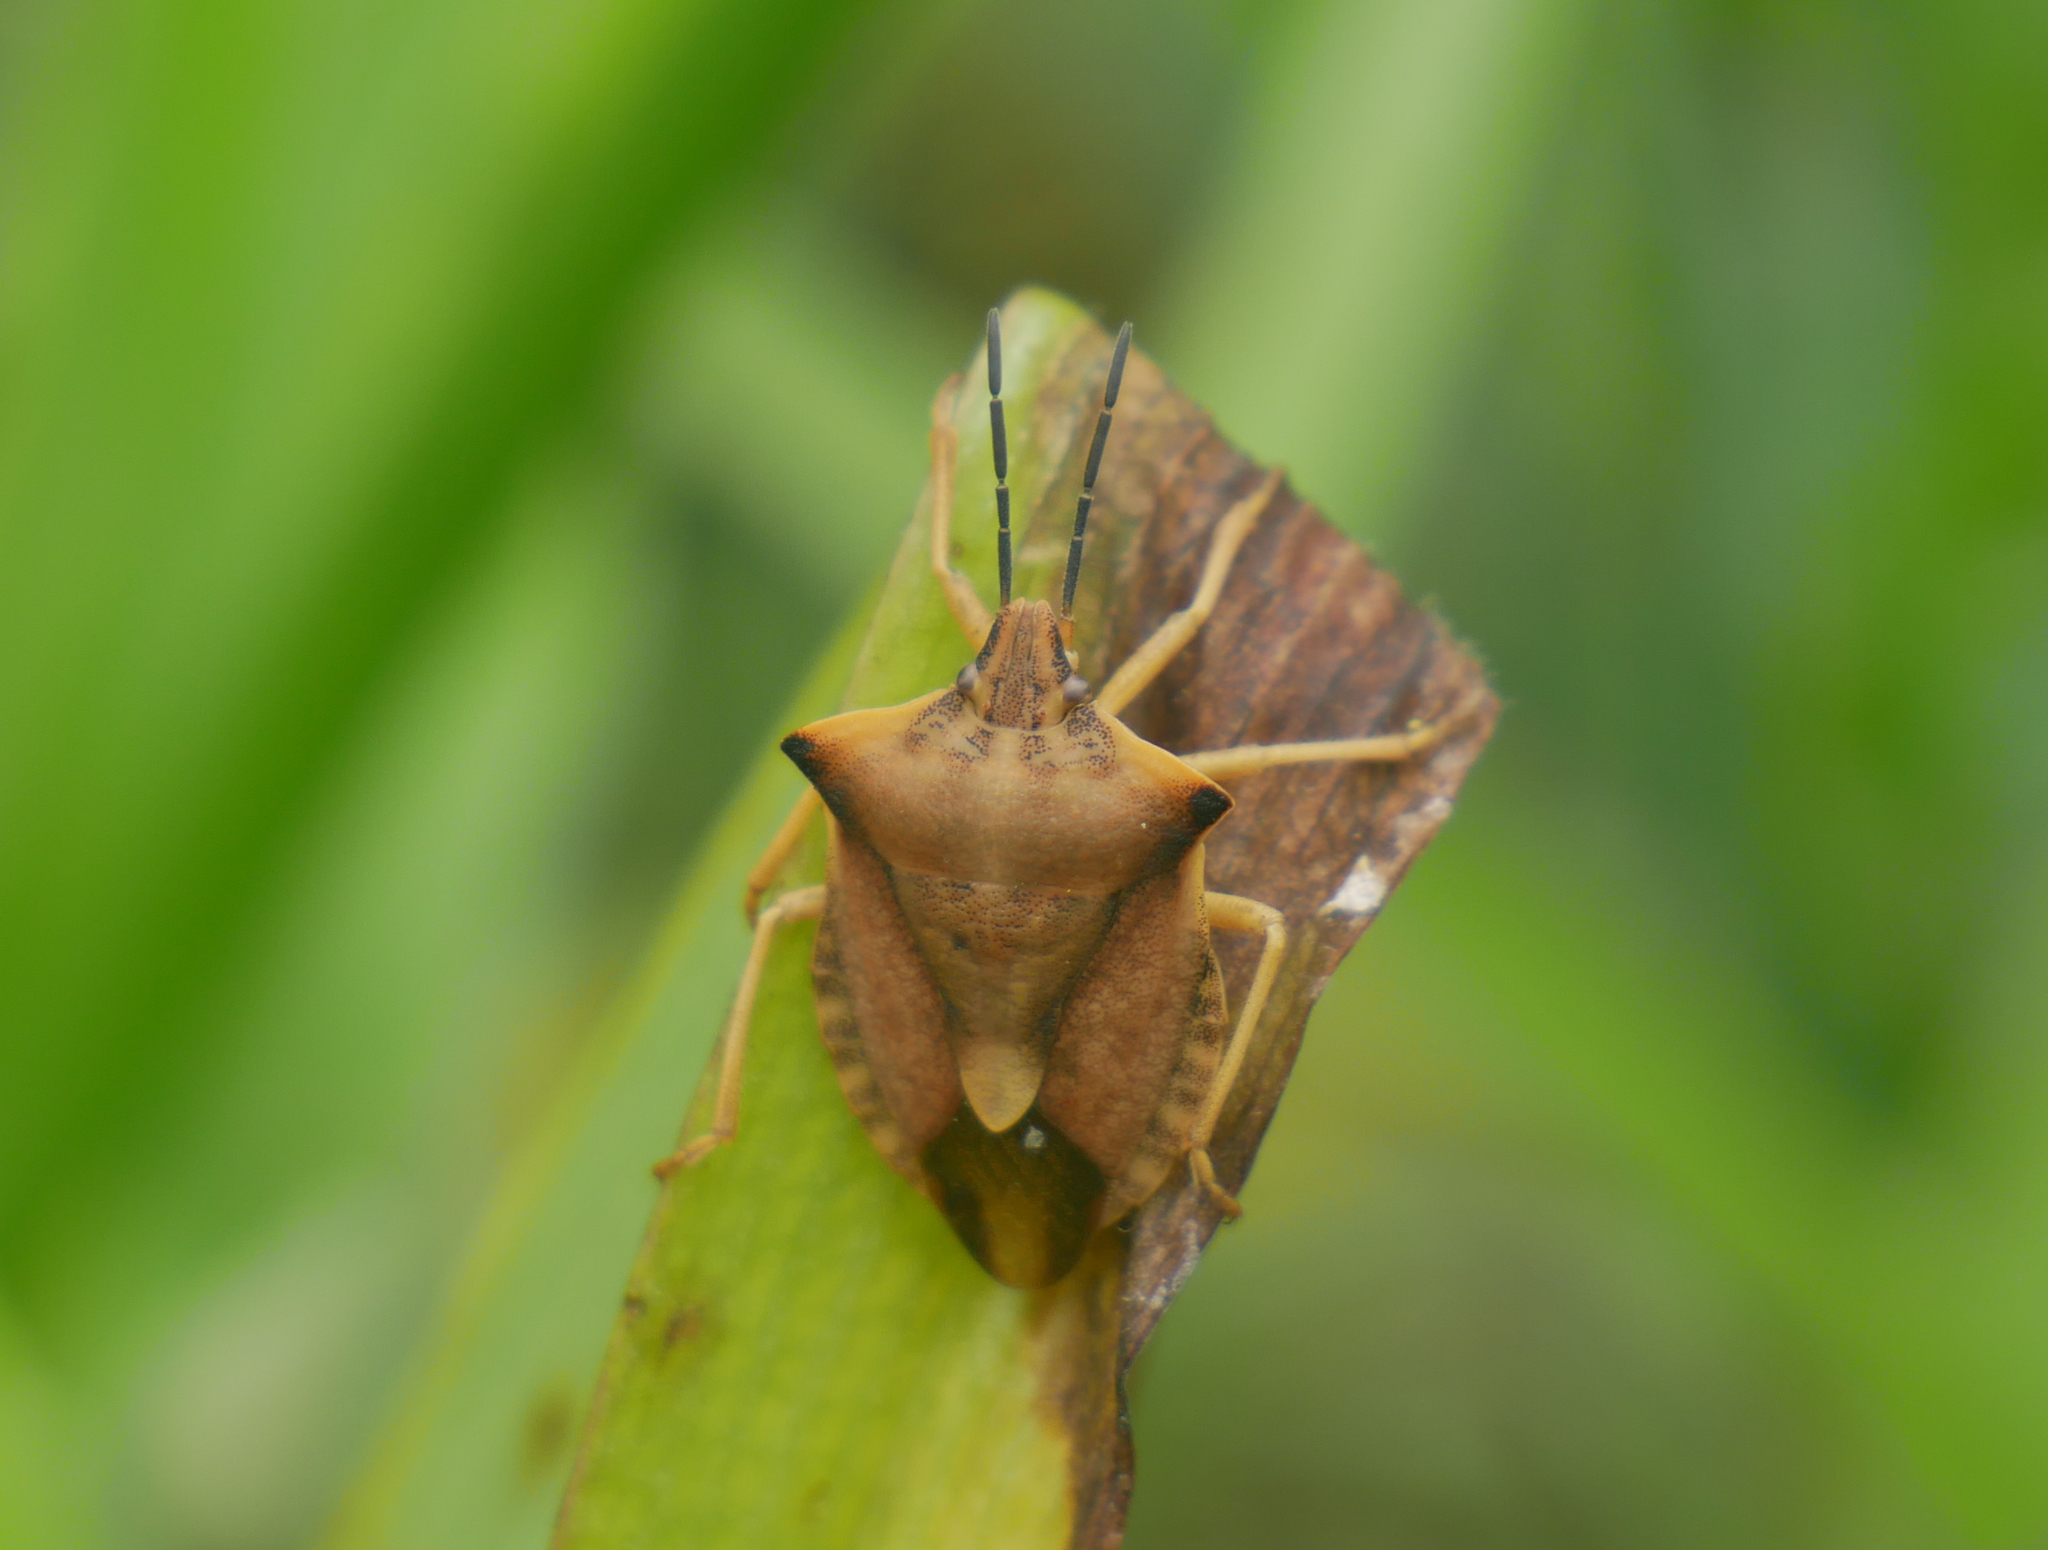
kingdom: Animalia
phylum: Arthropoda
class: Insecta
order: Hemiptera
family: Pentatomidae
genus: Carpocoris
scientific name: Carpocoris fuscispinus
